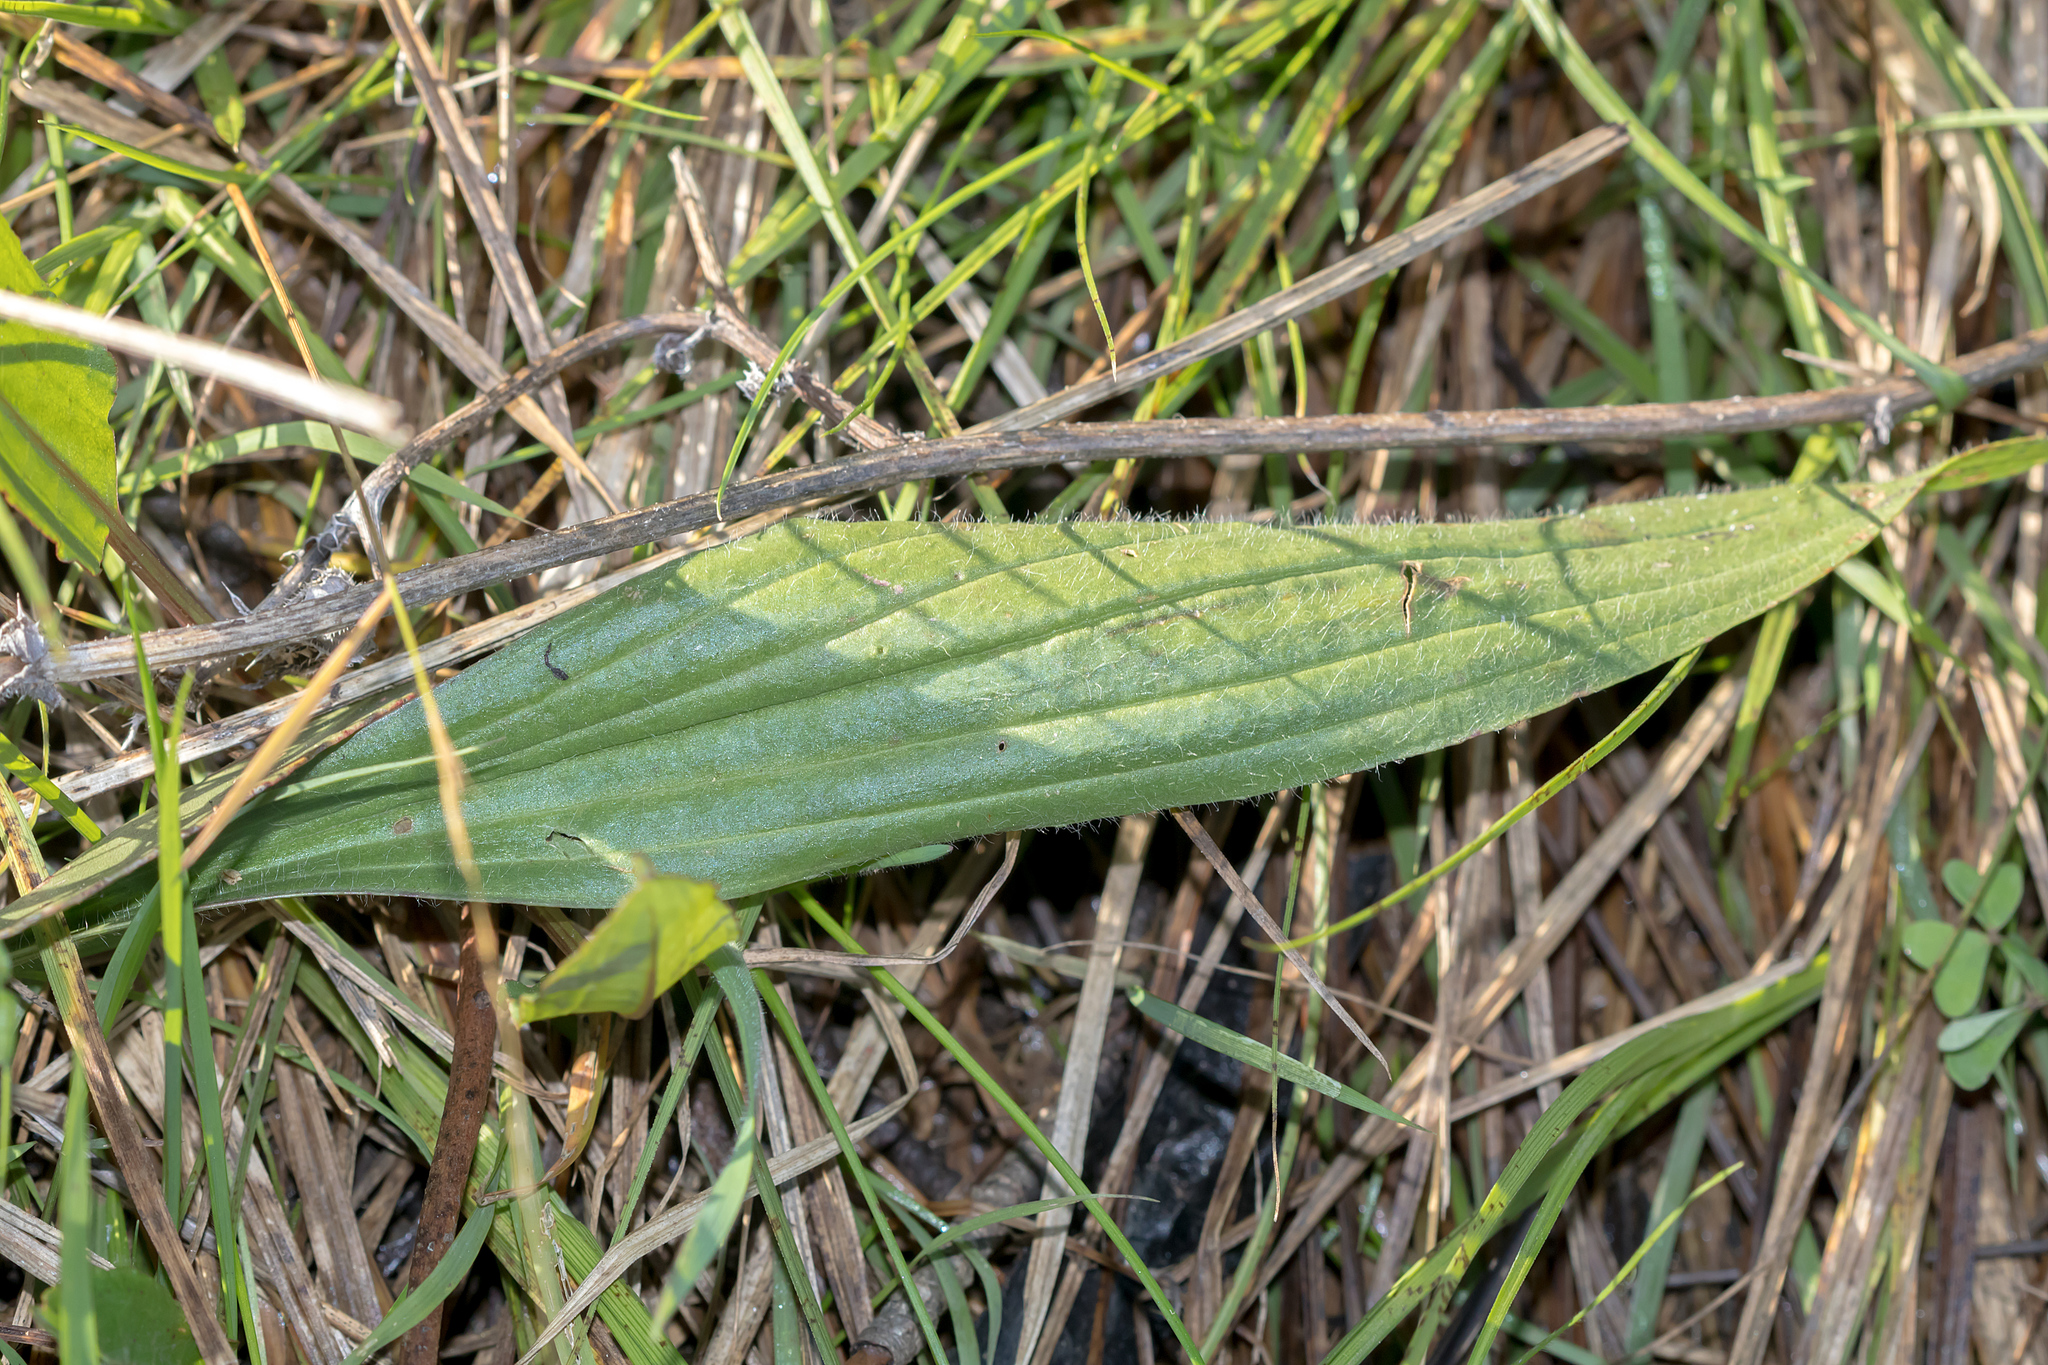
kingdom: Plantae
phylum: Tracheophyta
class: Magnoliopsida
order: Lamiales
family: Plantaginaceae
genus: Plantago
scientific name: Plantago lanceolata
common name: Ribwort plantain
